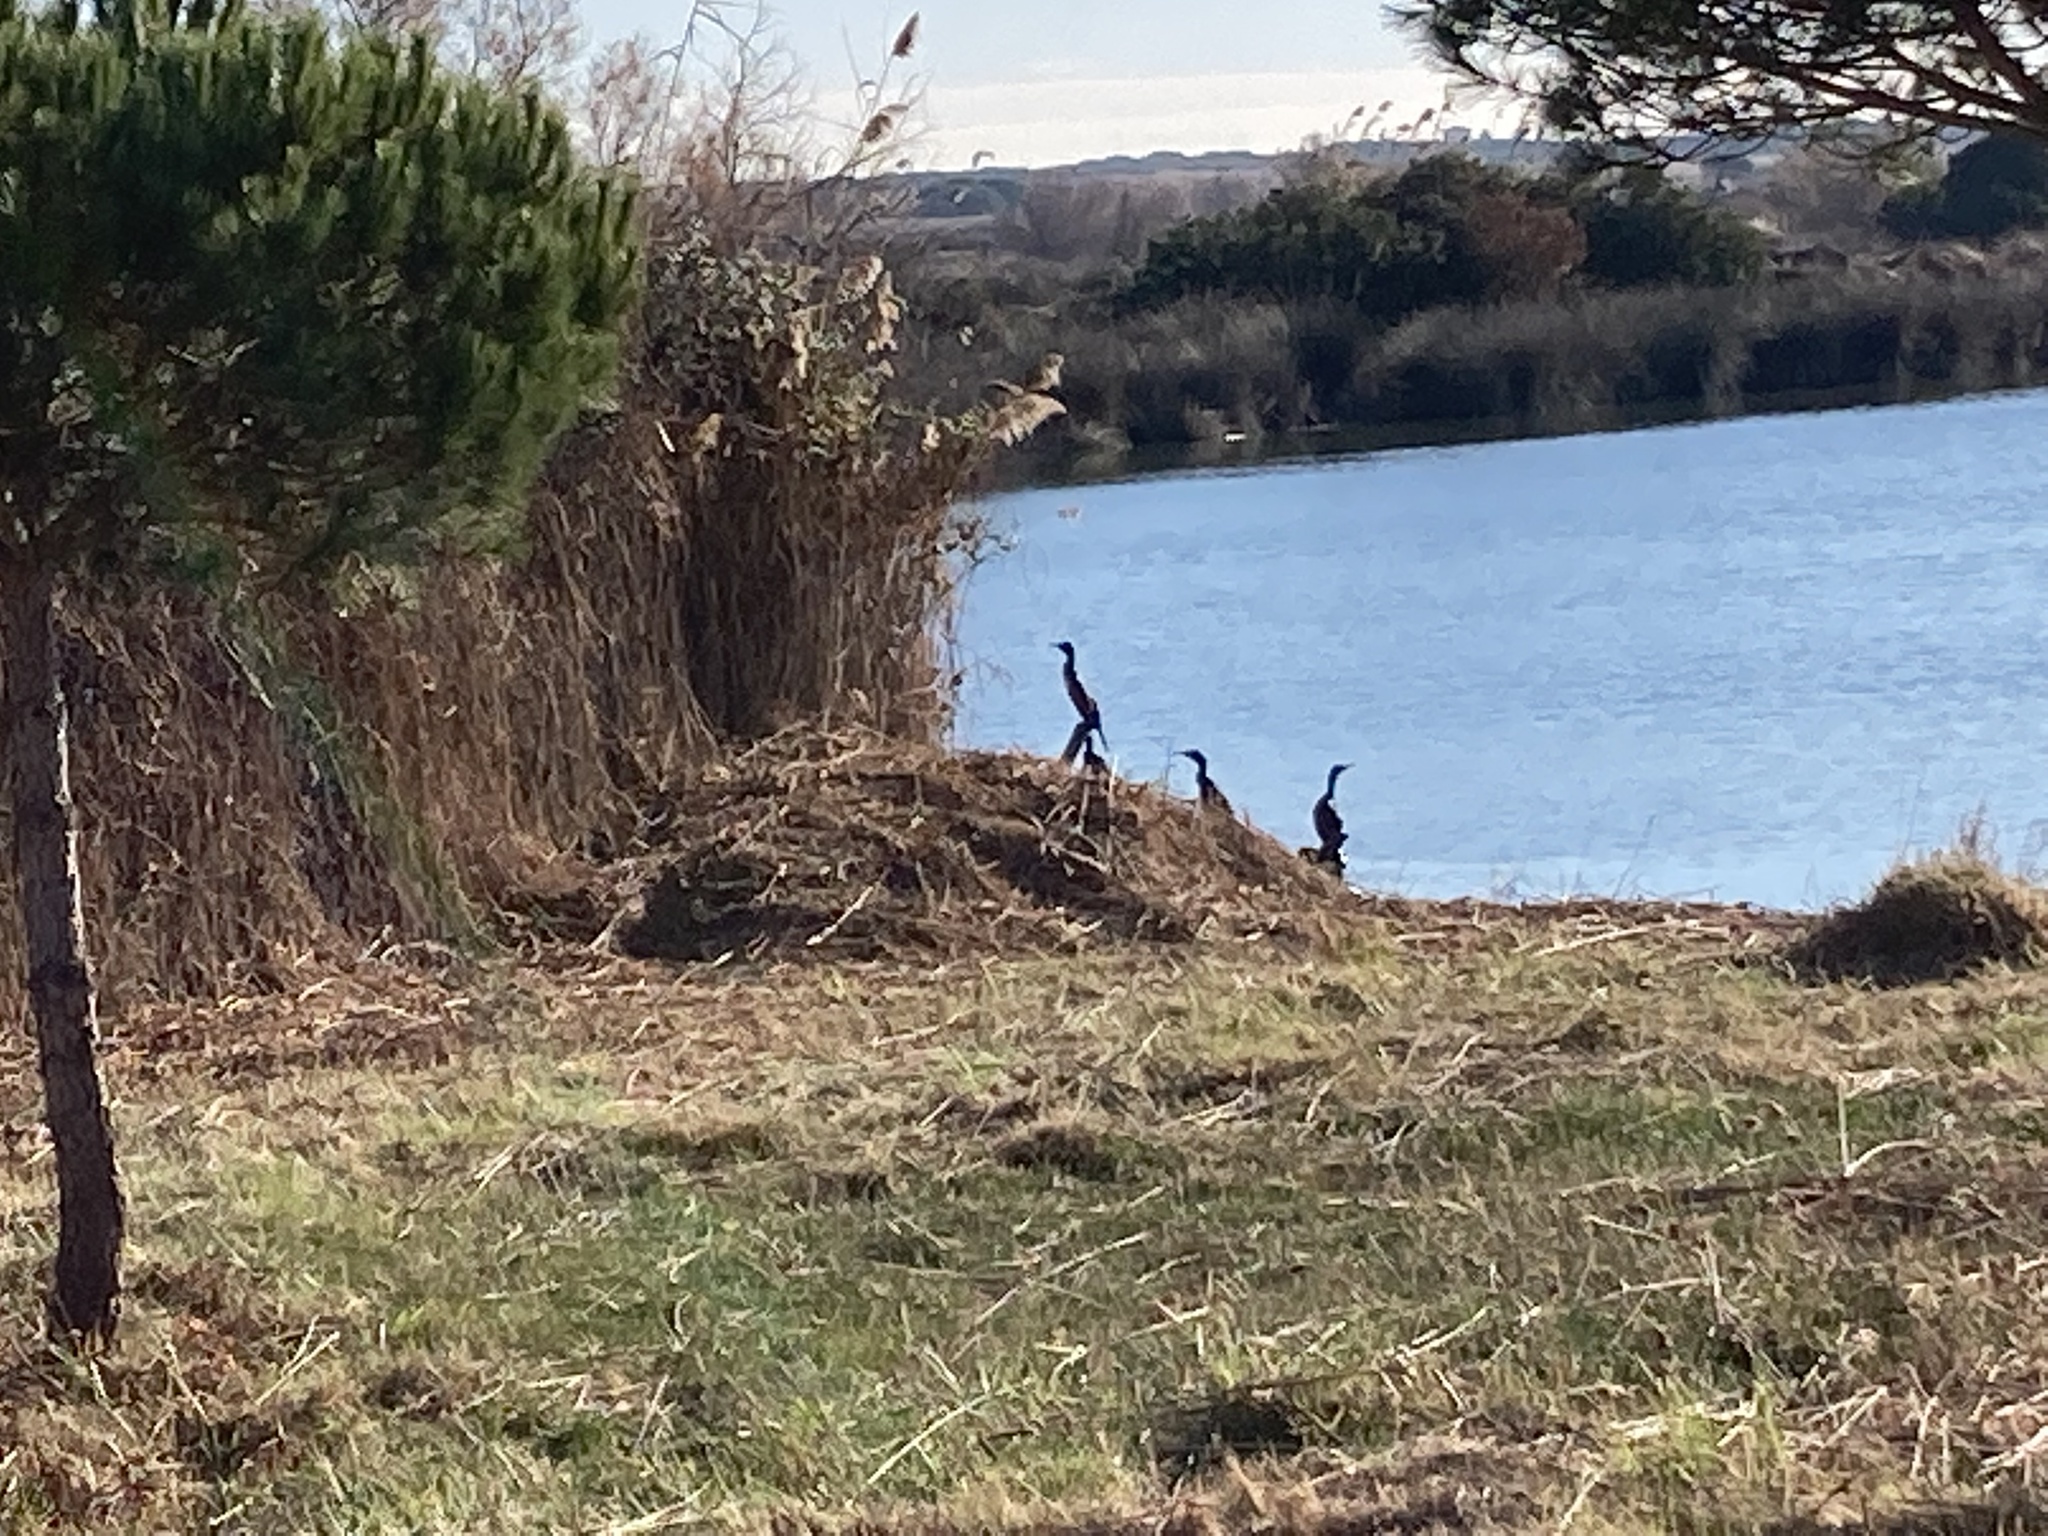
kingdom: Animalia
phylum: Chordata
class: Aves
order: Suliformes
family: Phalacrocoracidae
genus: Phalacrocorax
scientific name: Phalacrocorax aristotelis
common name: European shag
